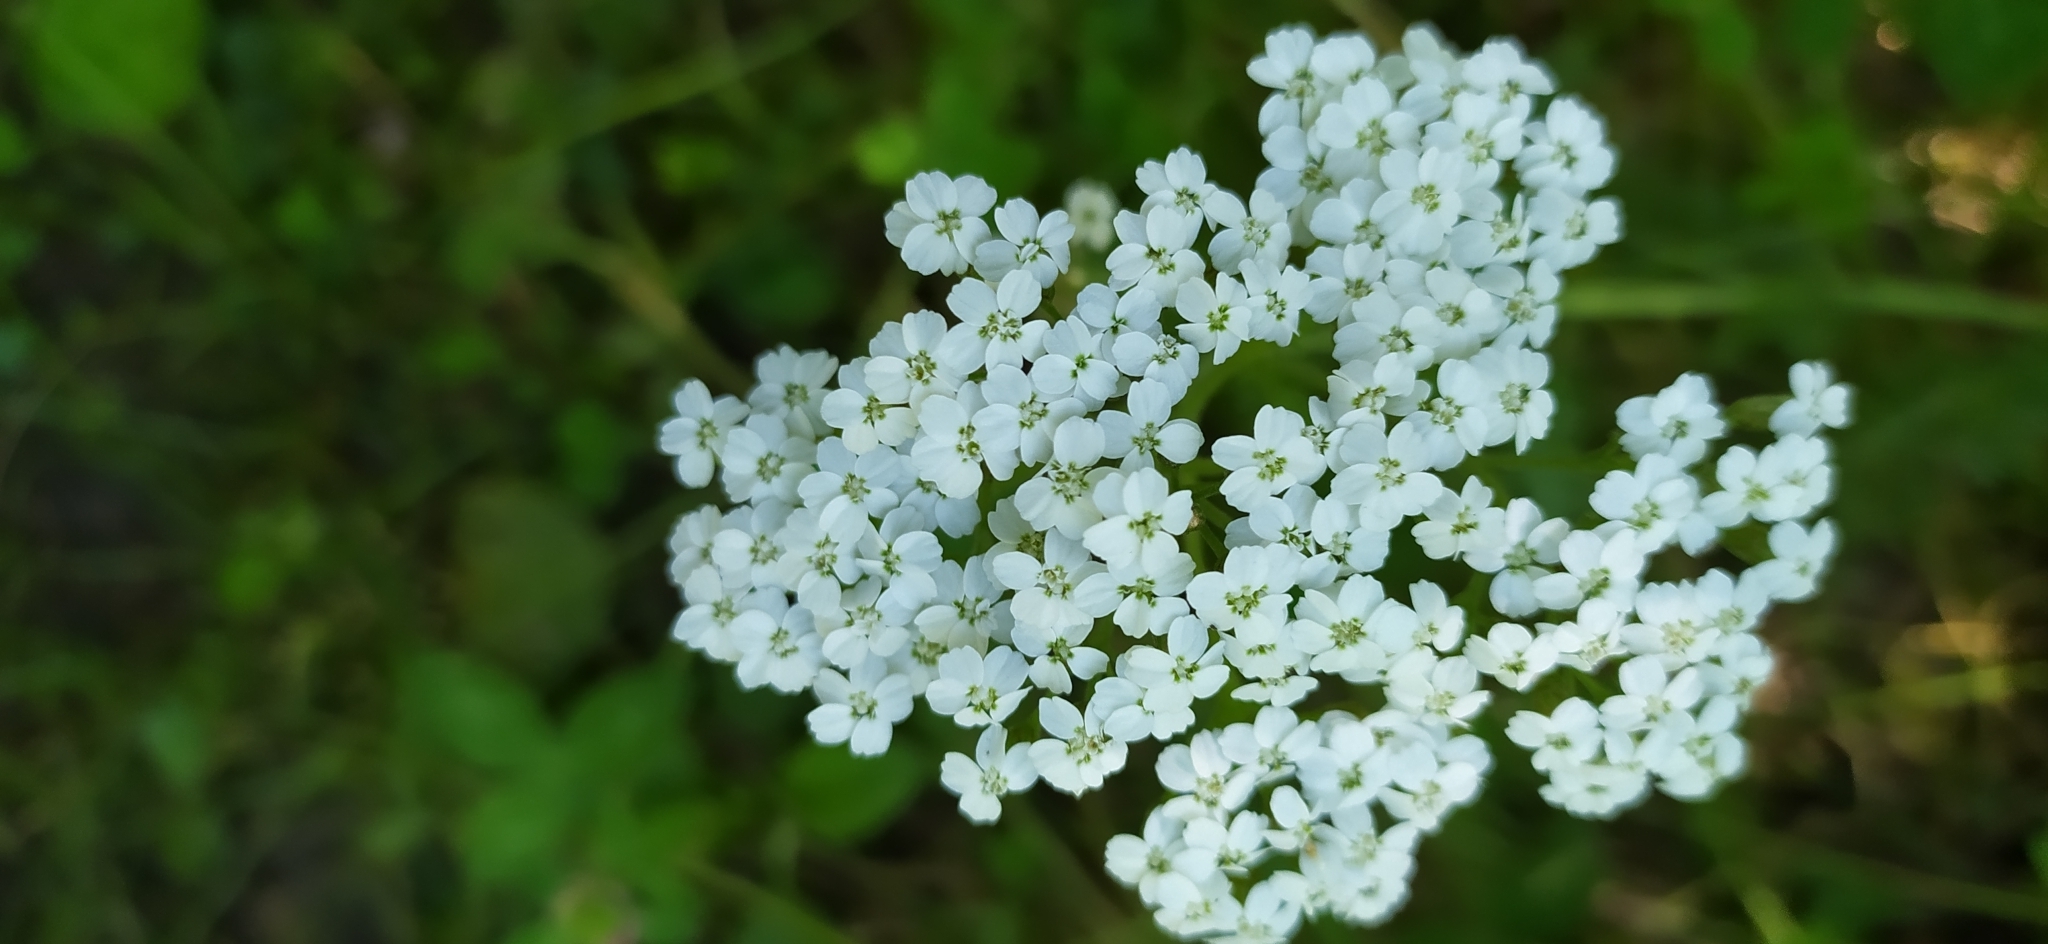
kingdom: Plantae
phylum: Tracheophyta
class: Magnoliopsida
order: Asterales
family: Asteraceae
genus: Achillea
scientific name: Achillea millefolium
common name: Yarrow
